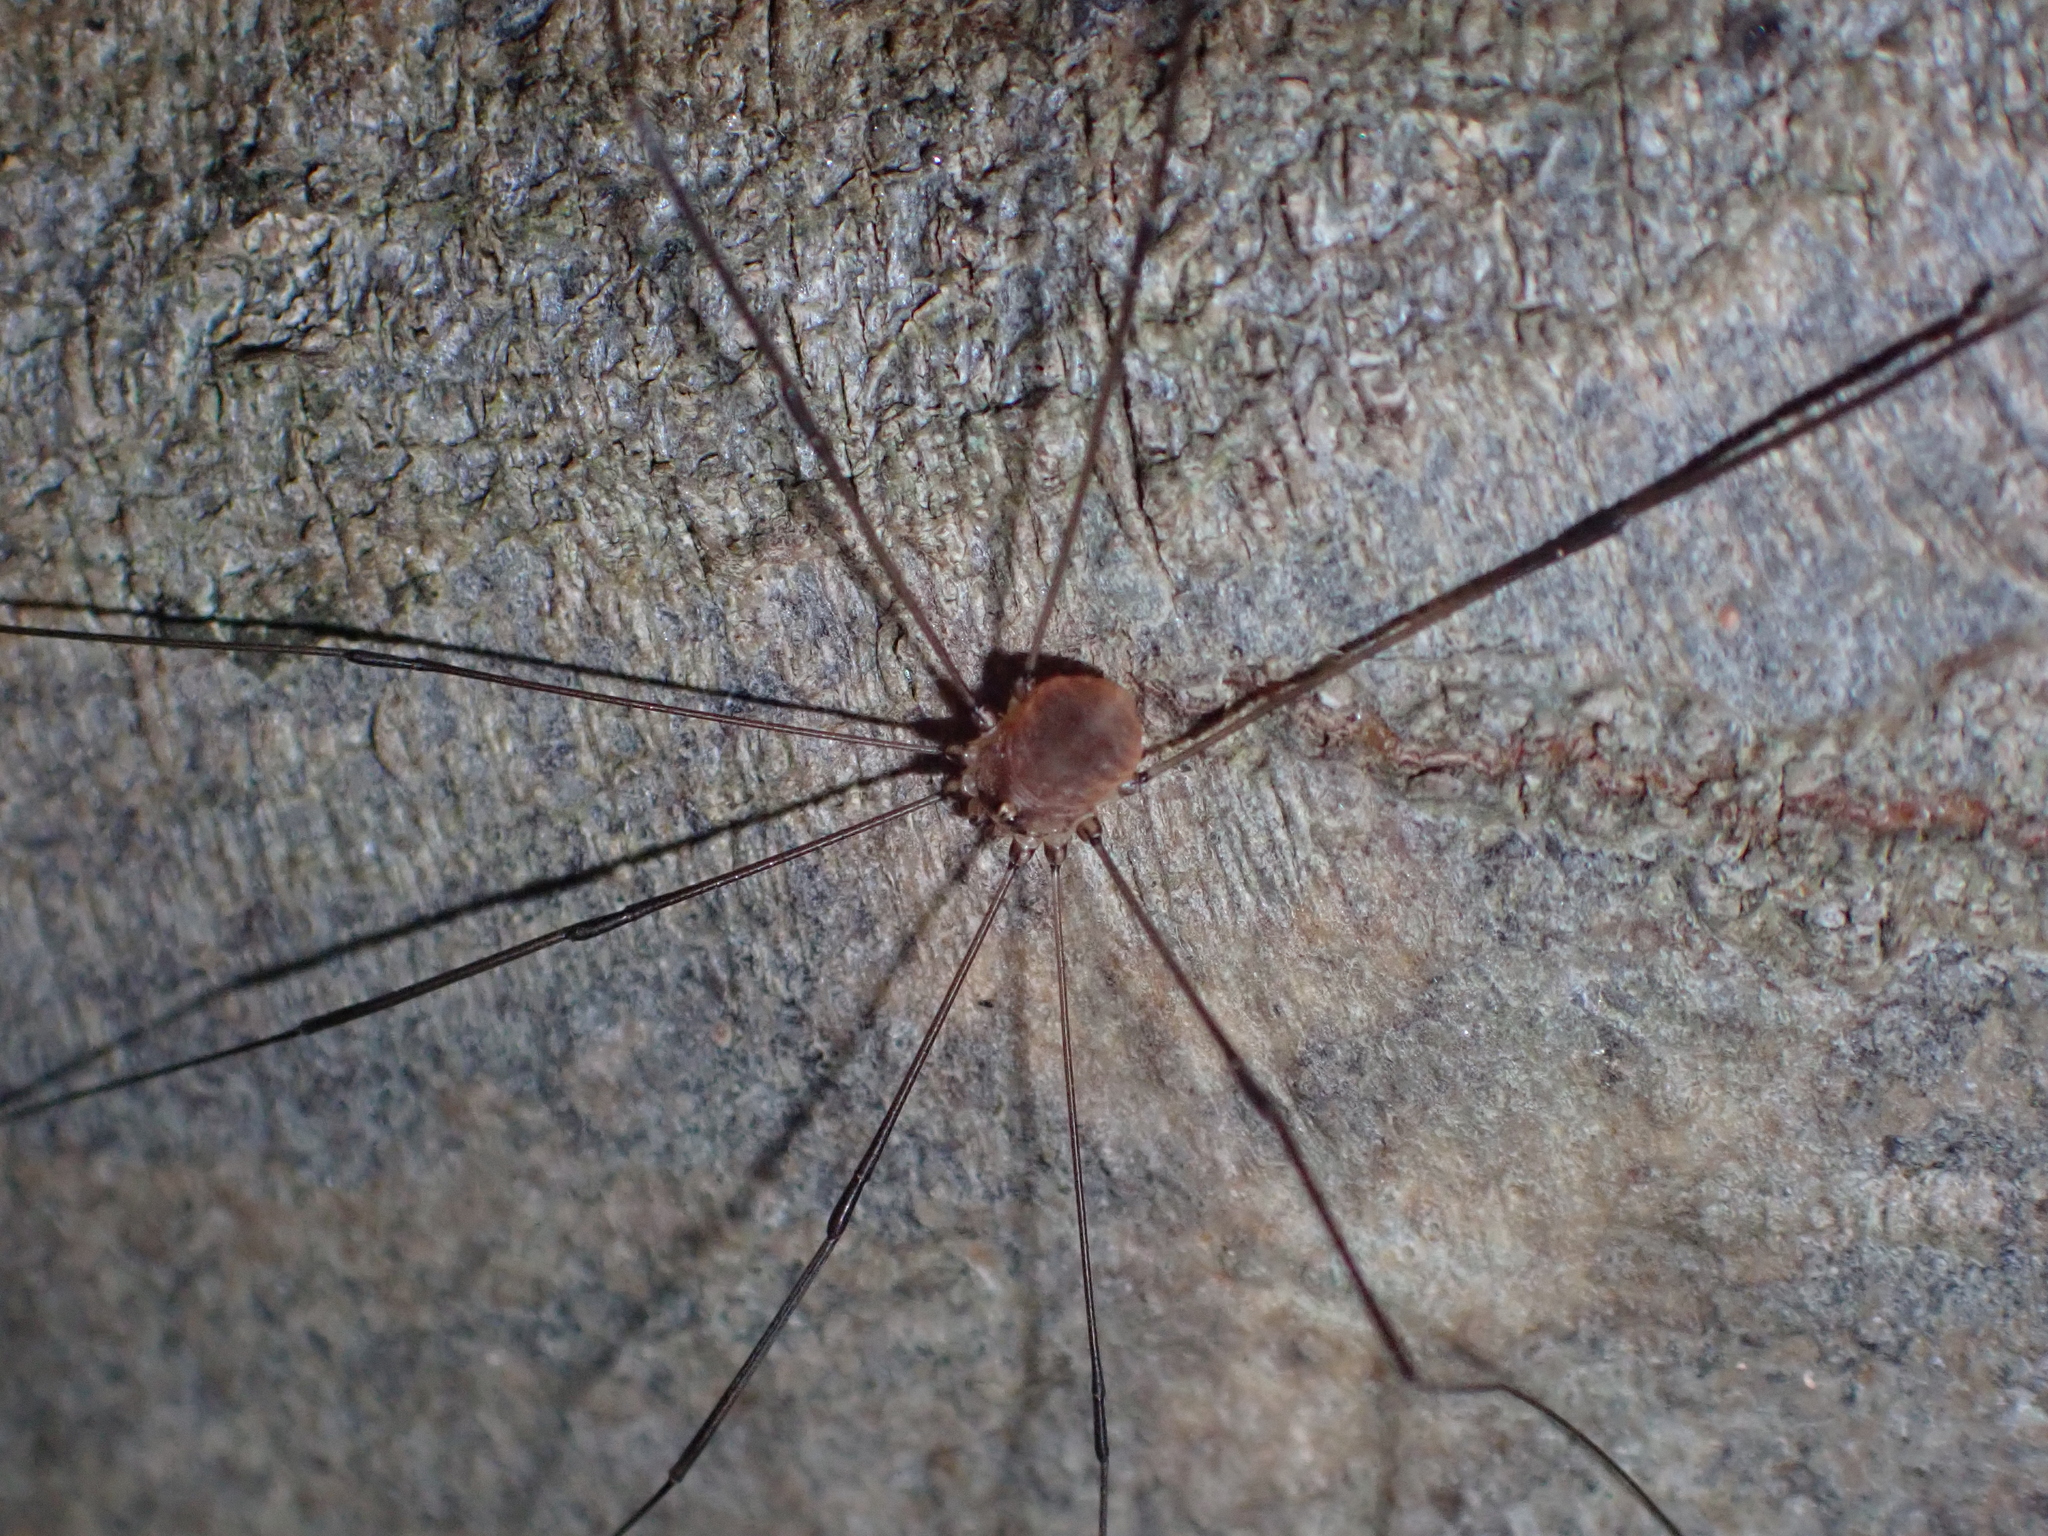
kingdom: Animalia
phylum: Arthropoda
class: Arachnida
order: Opiliones
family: Sclerosomatidae
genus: Leiobunum
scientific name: Leiobunum blackwalli
